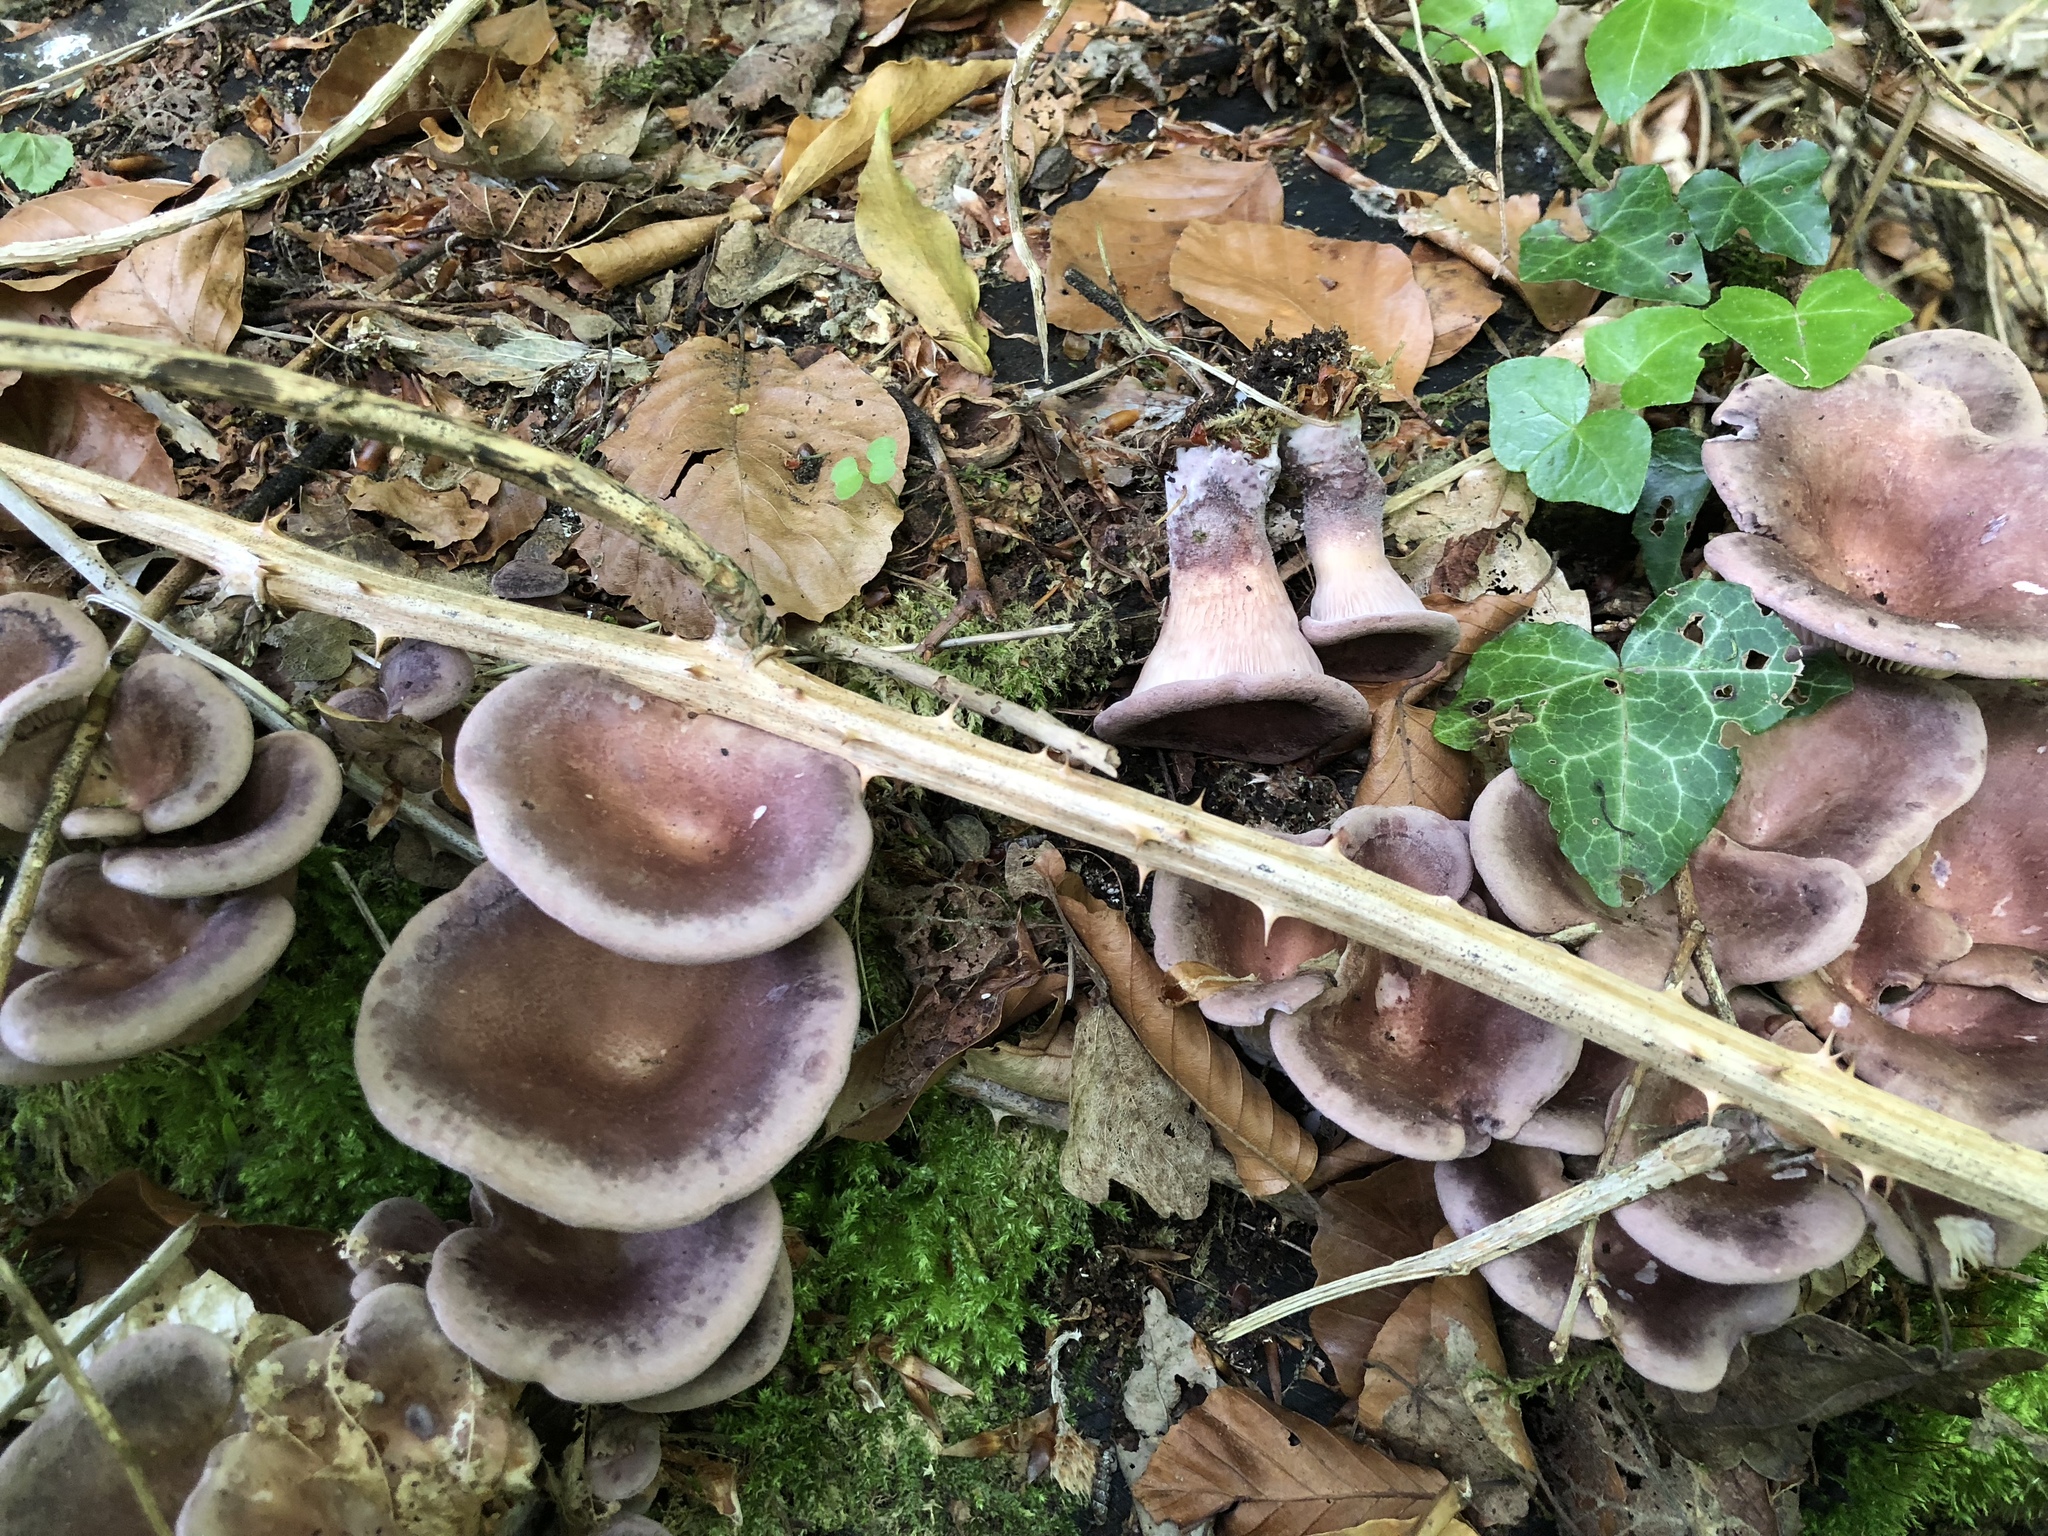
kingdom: Fungi
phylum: Basidiomycota
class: Agaricomycetes
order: Polyporales
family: Panaceae
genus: Panus
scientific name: Panus conchatus
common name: Lilac oysterling
